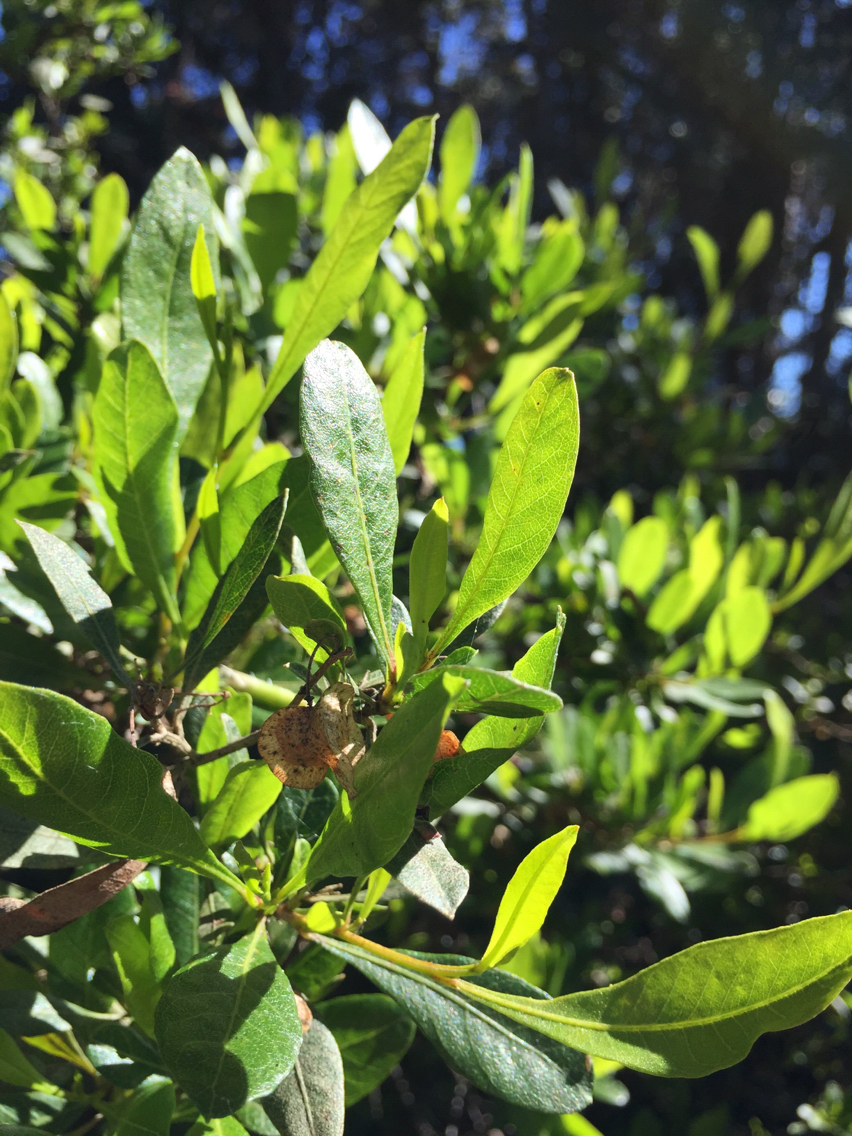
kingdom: Plantae
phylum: Tracheophyta
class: Magnoliopsida
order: Sapindales
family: Sapindaceae
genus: Dodonaea
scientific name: Dodonaea viscosa
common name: Hopbush
